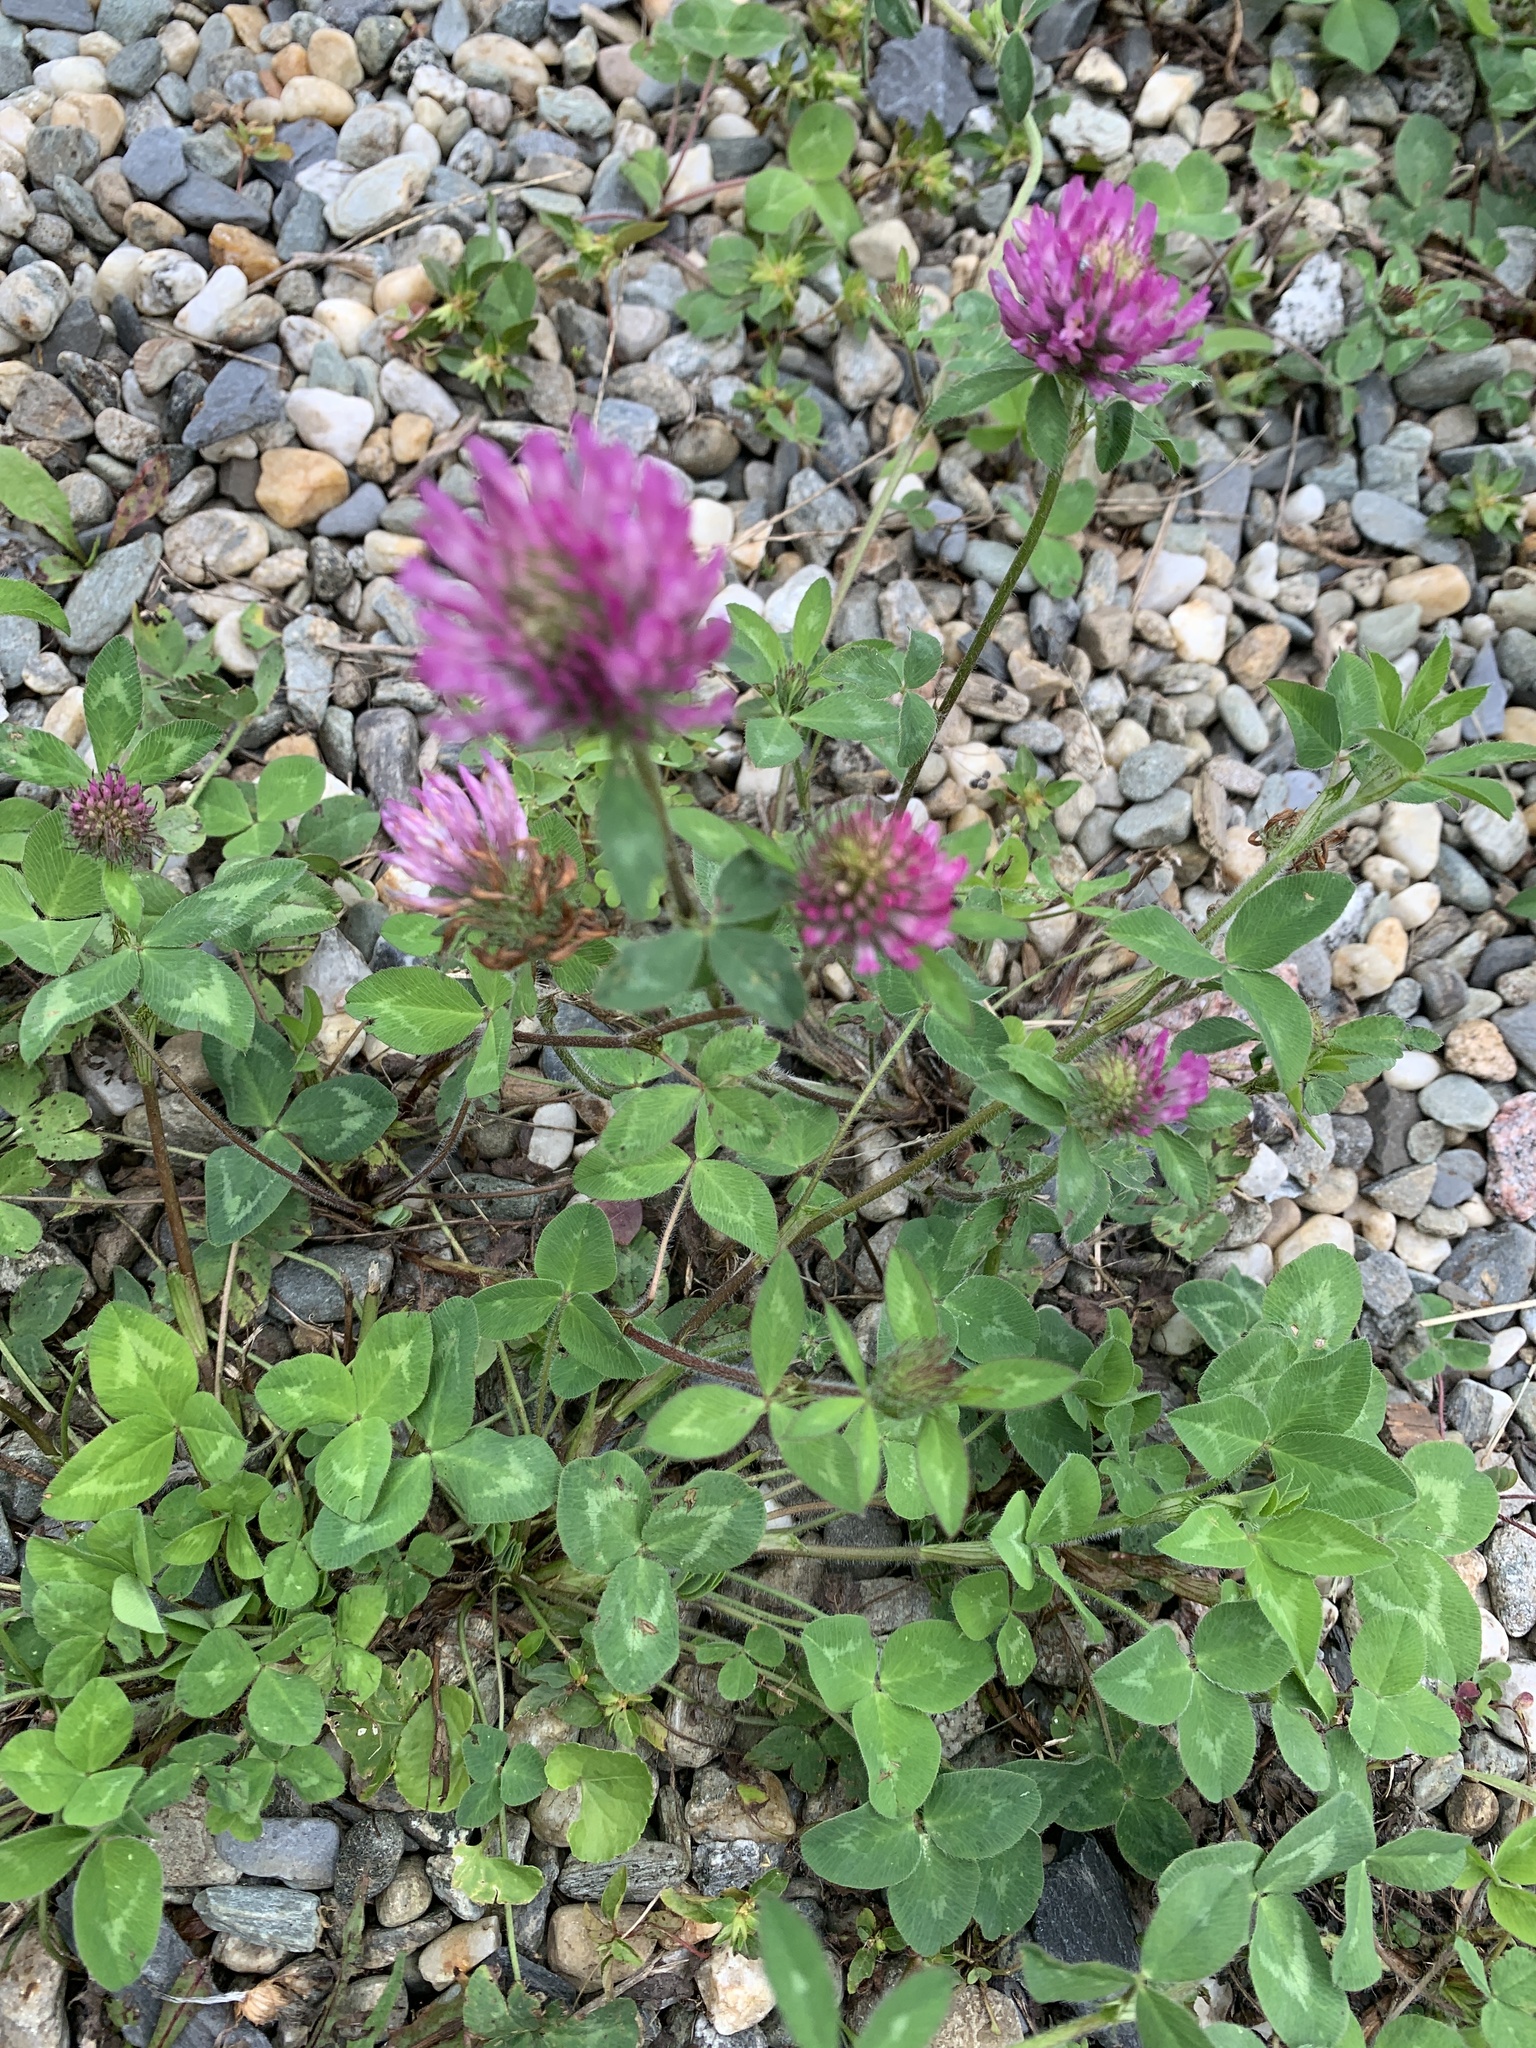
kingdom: Plantae
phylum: Tracheophyta
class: Magnoliopsida
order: Fabales
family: Fabaceae
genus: Trifolium
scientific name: Trifolium pratense
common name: Red clover
